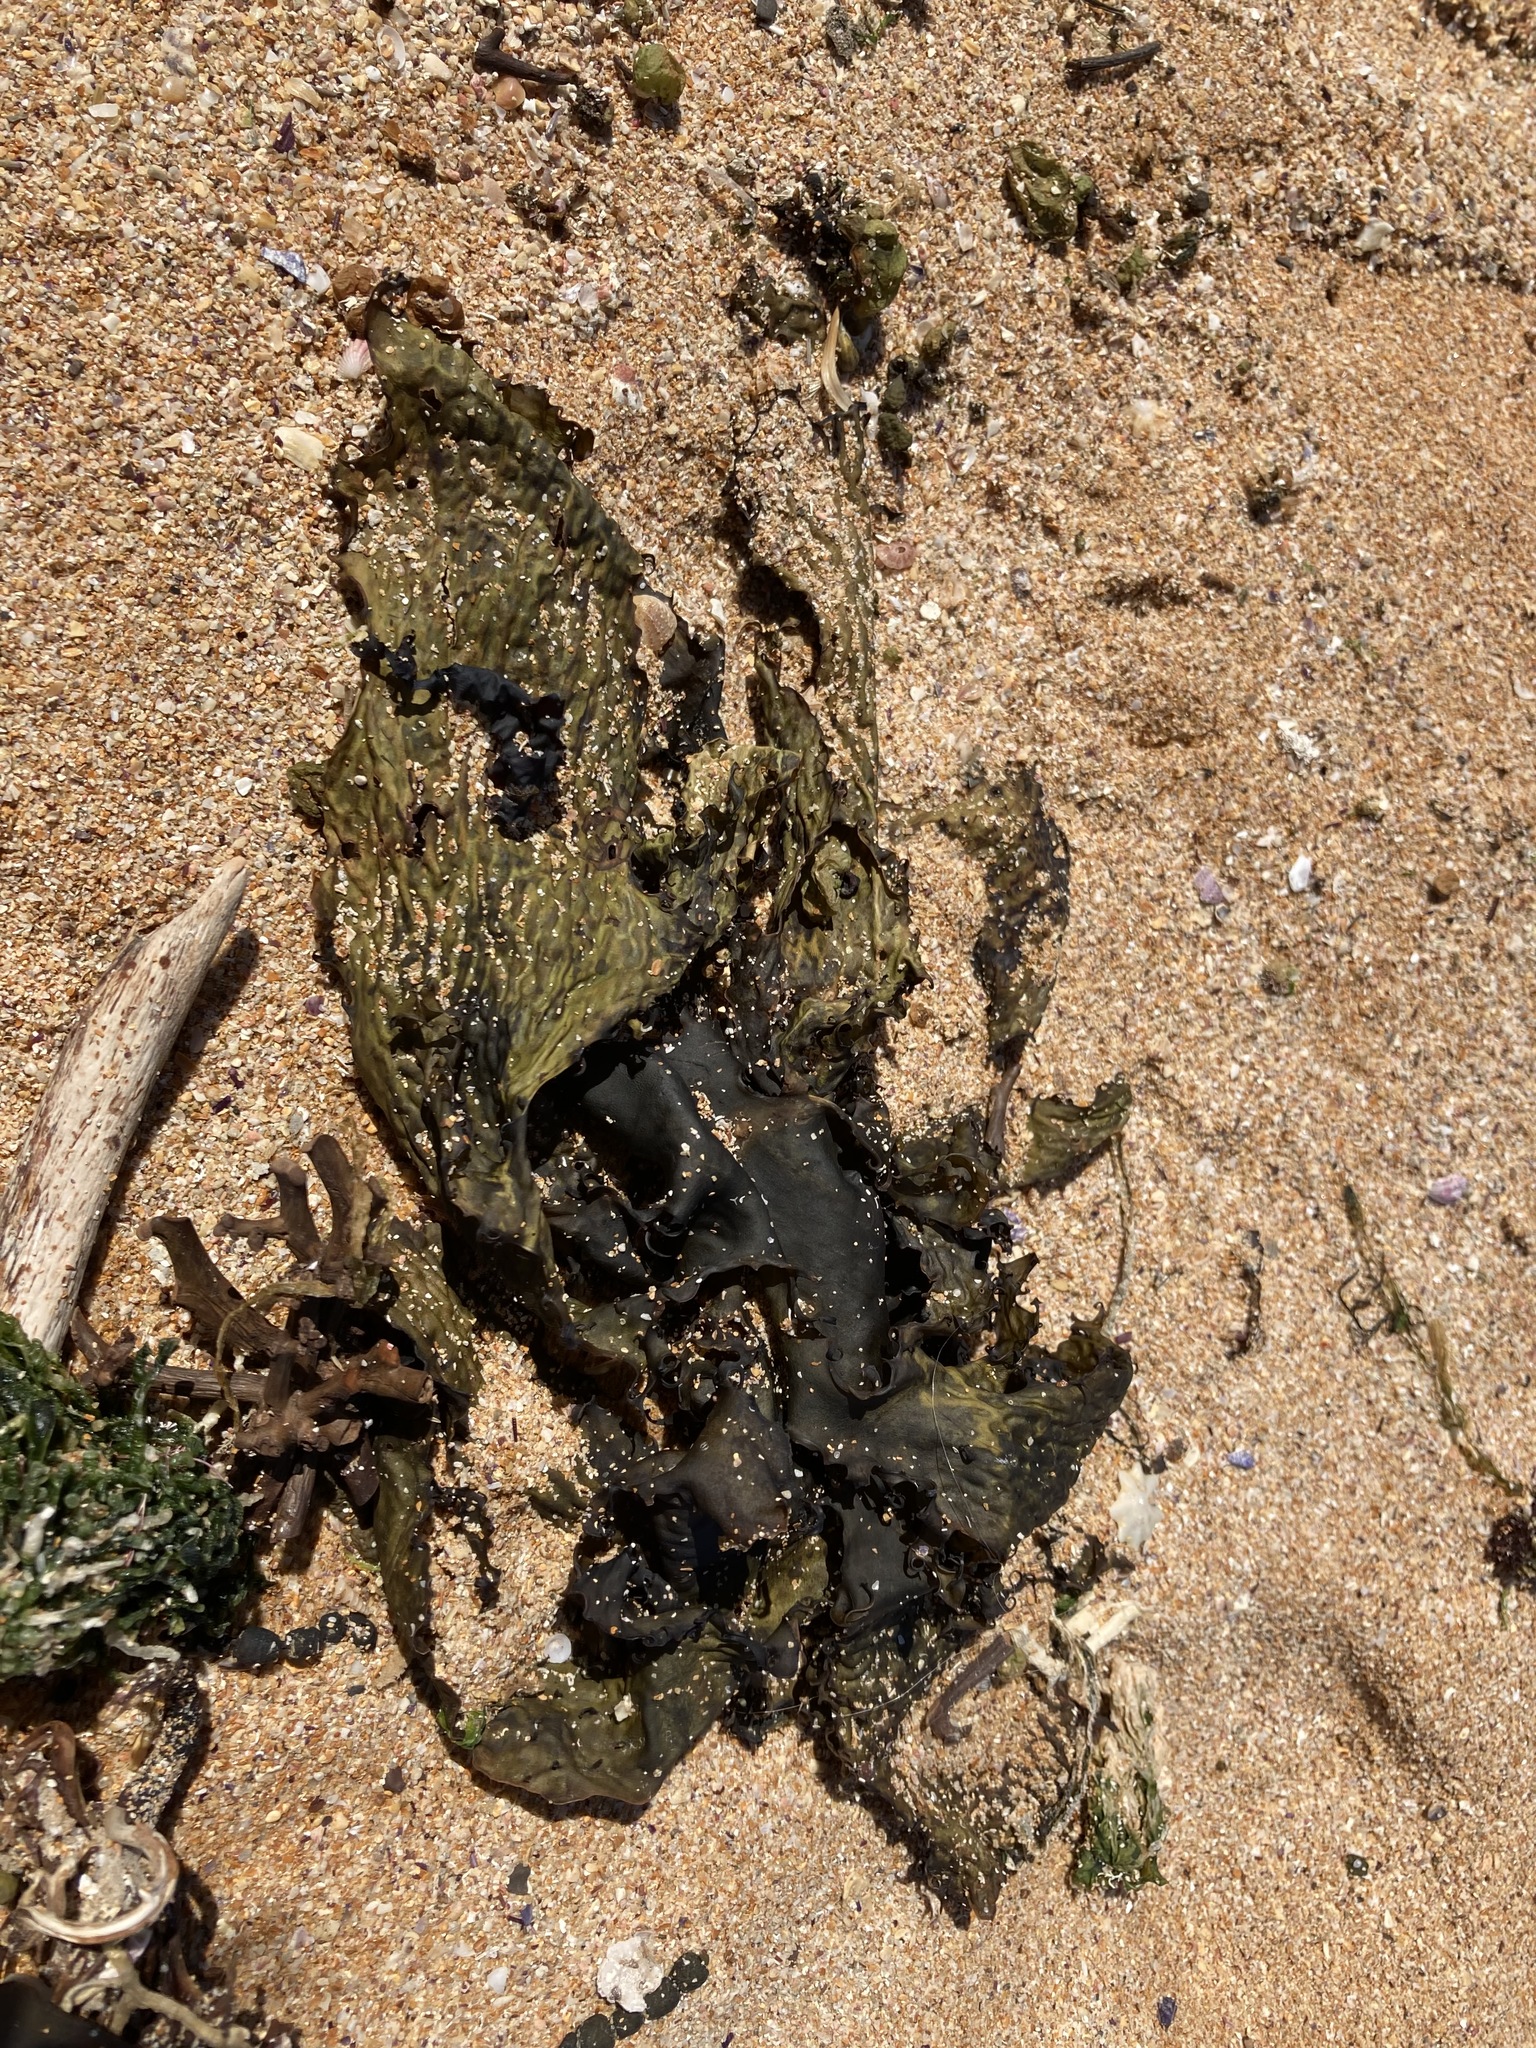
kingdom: Chromista
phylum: Ochrophyta
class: Phaeophyceae
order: Laminariales
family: Lessoniaceae
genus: Ecklonia
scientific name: Ecklonia radiata
